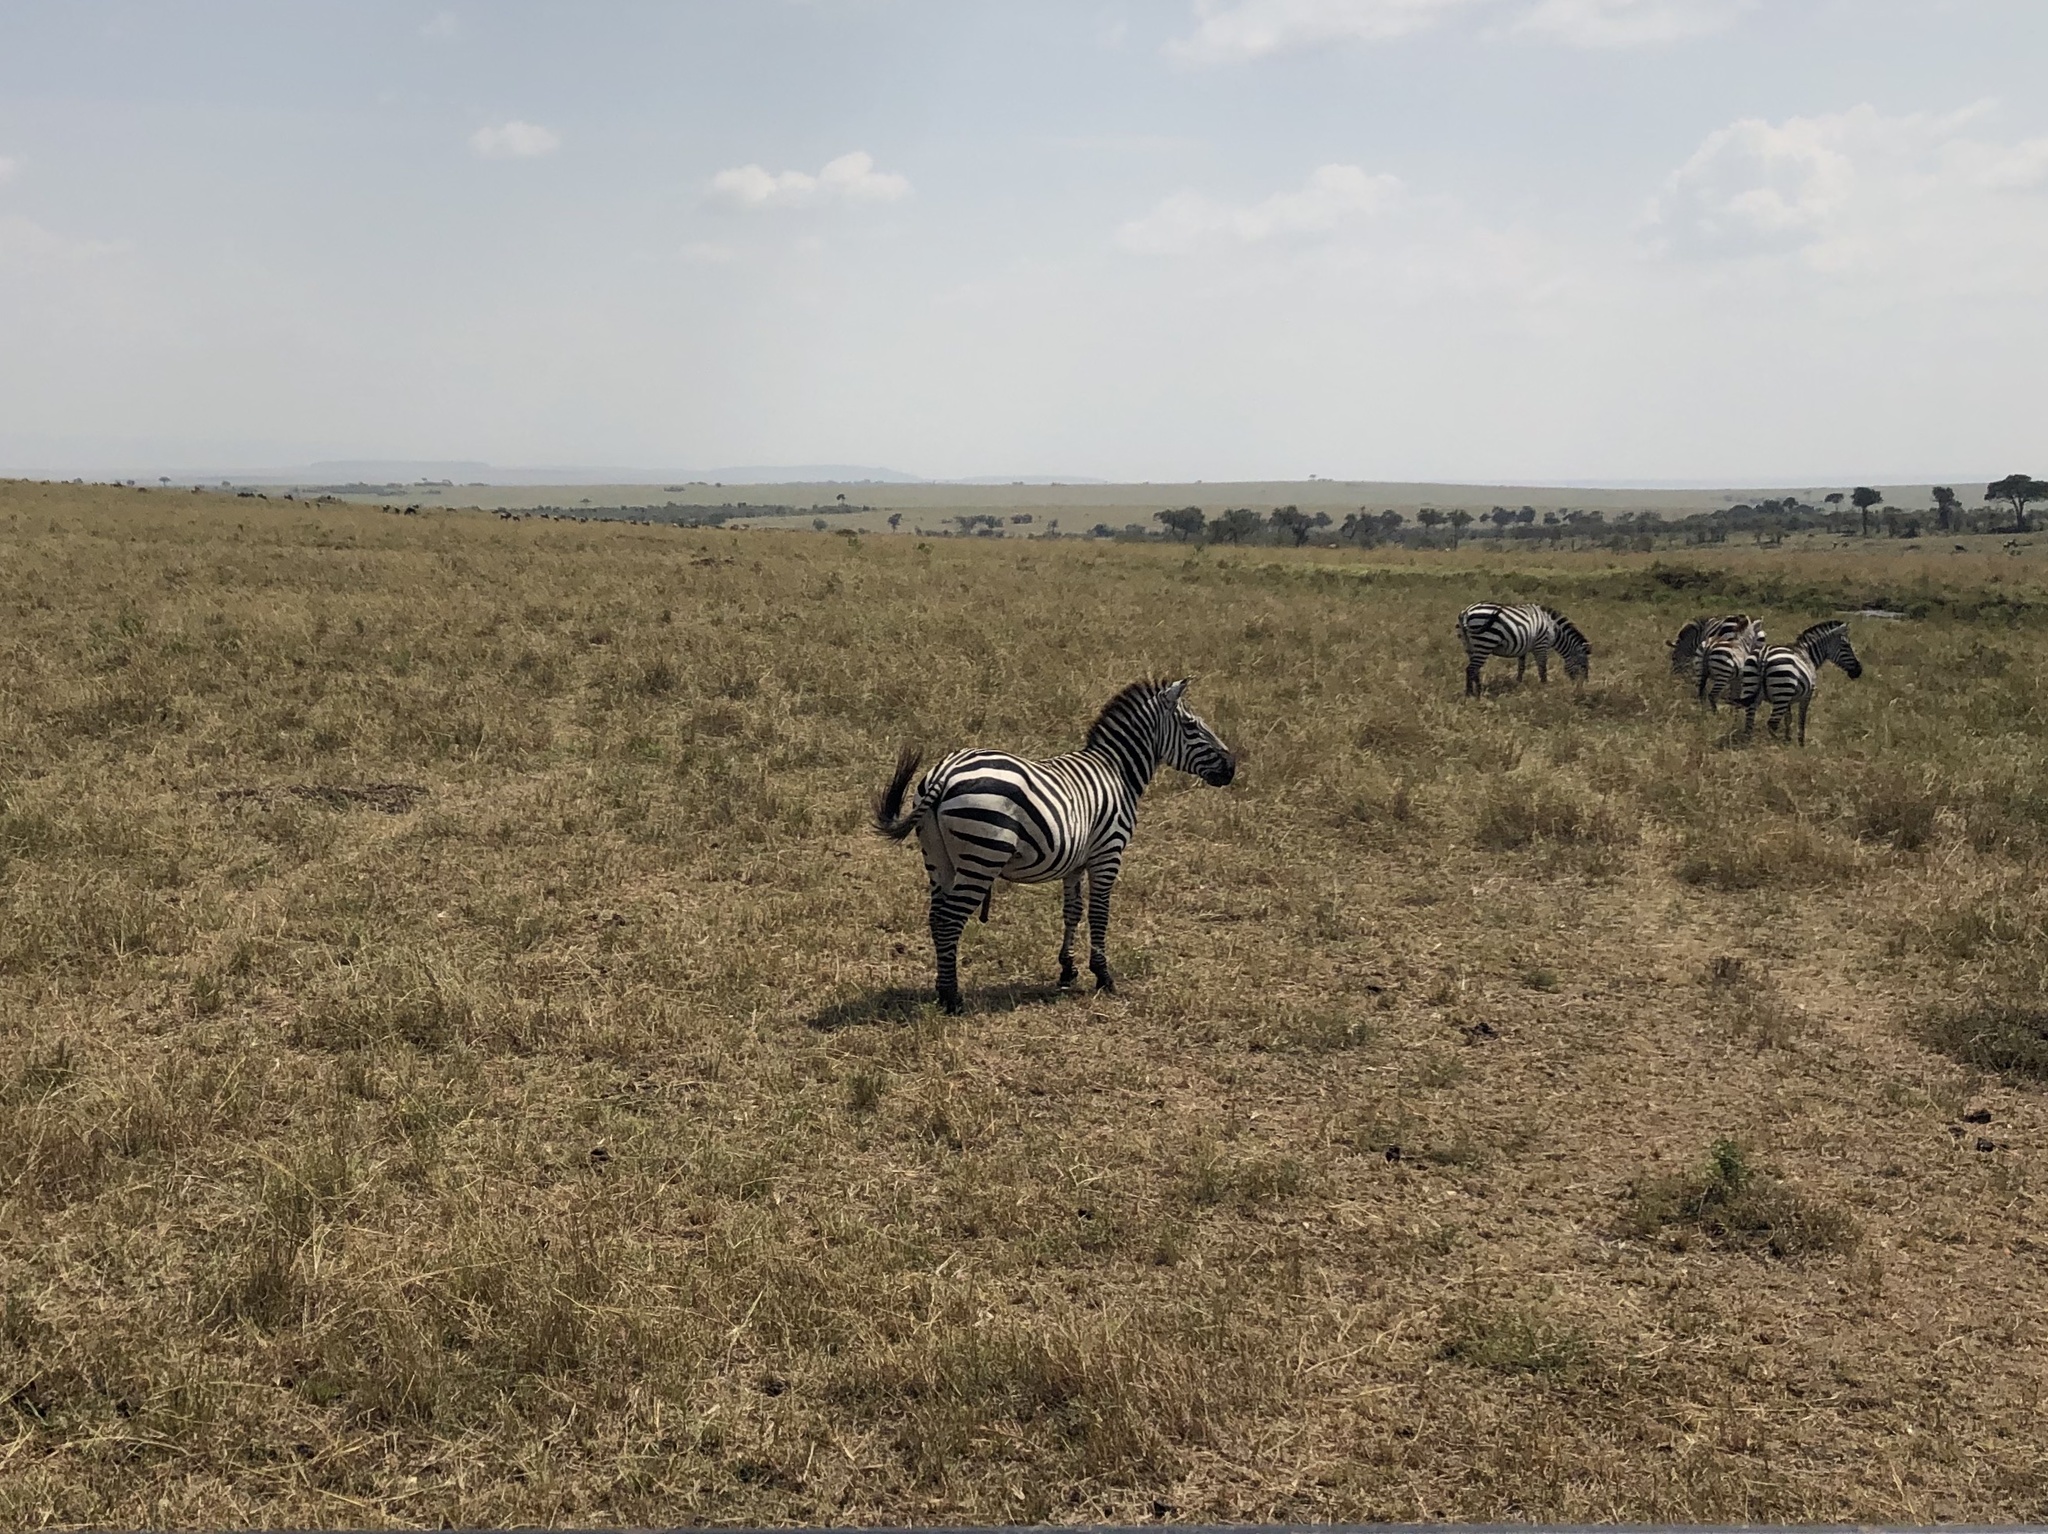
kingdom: Animalia
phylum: Chordata
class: Mammalia
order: Perissodactyla
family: Equidae
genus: Equus
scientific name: Equus quagga
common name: Plains zebra
